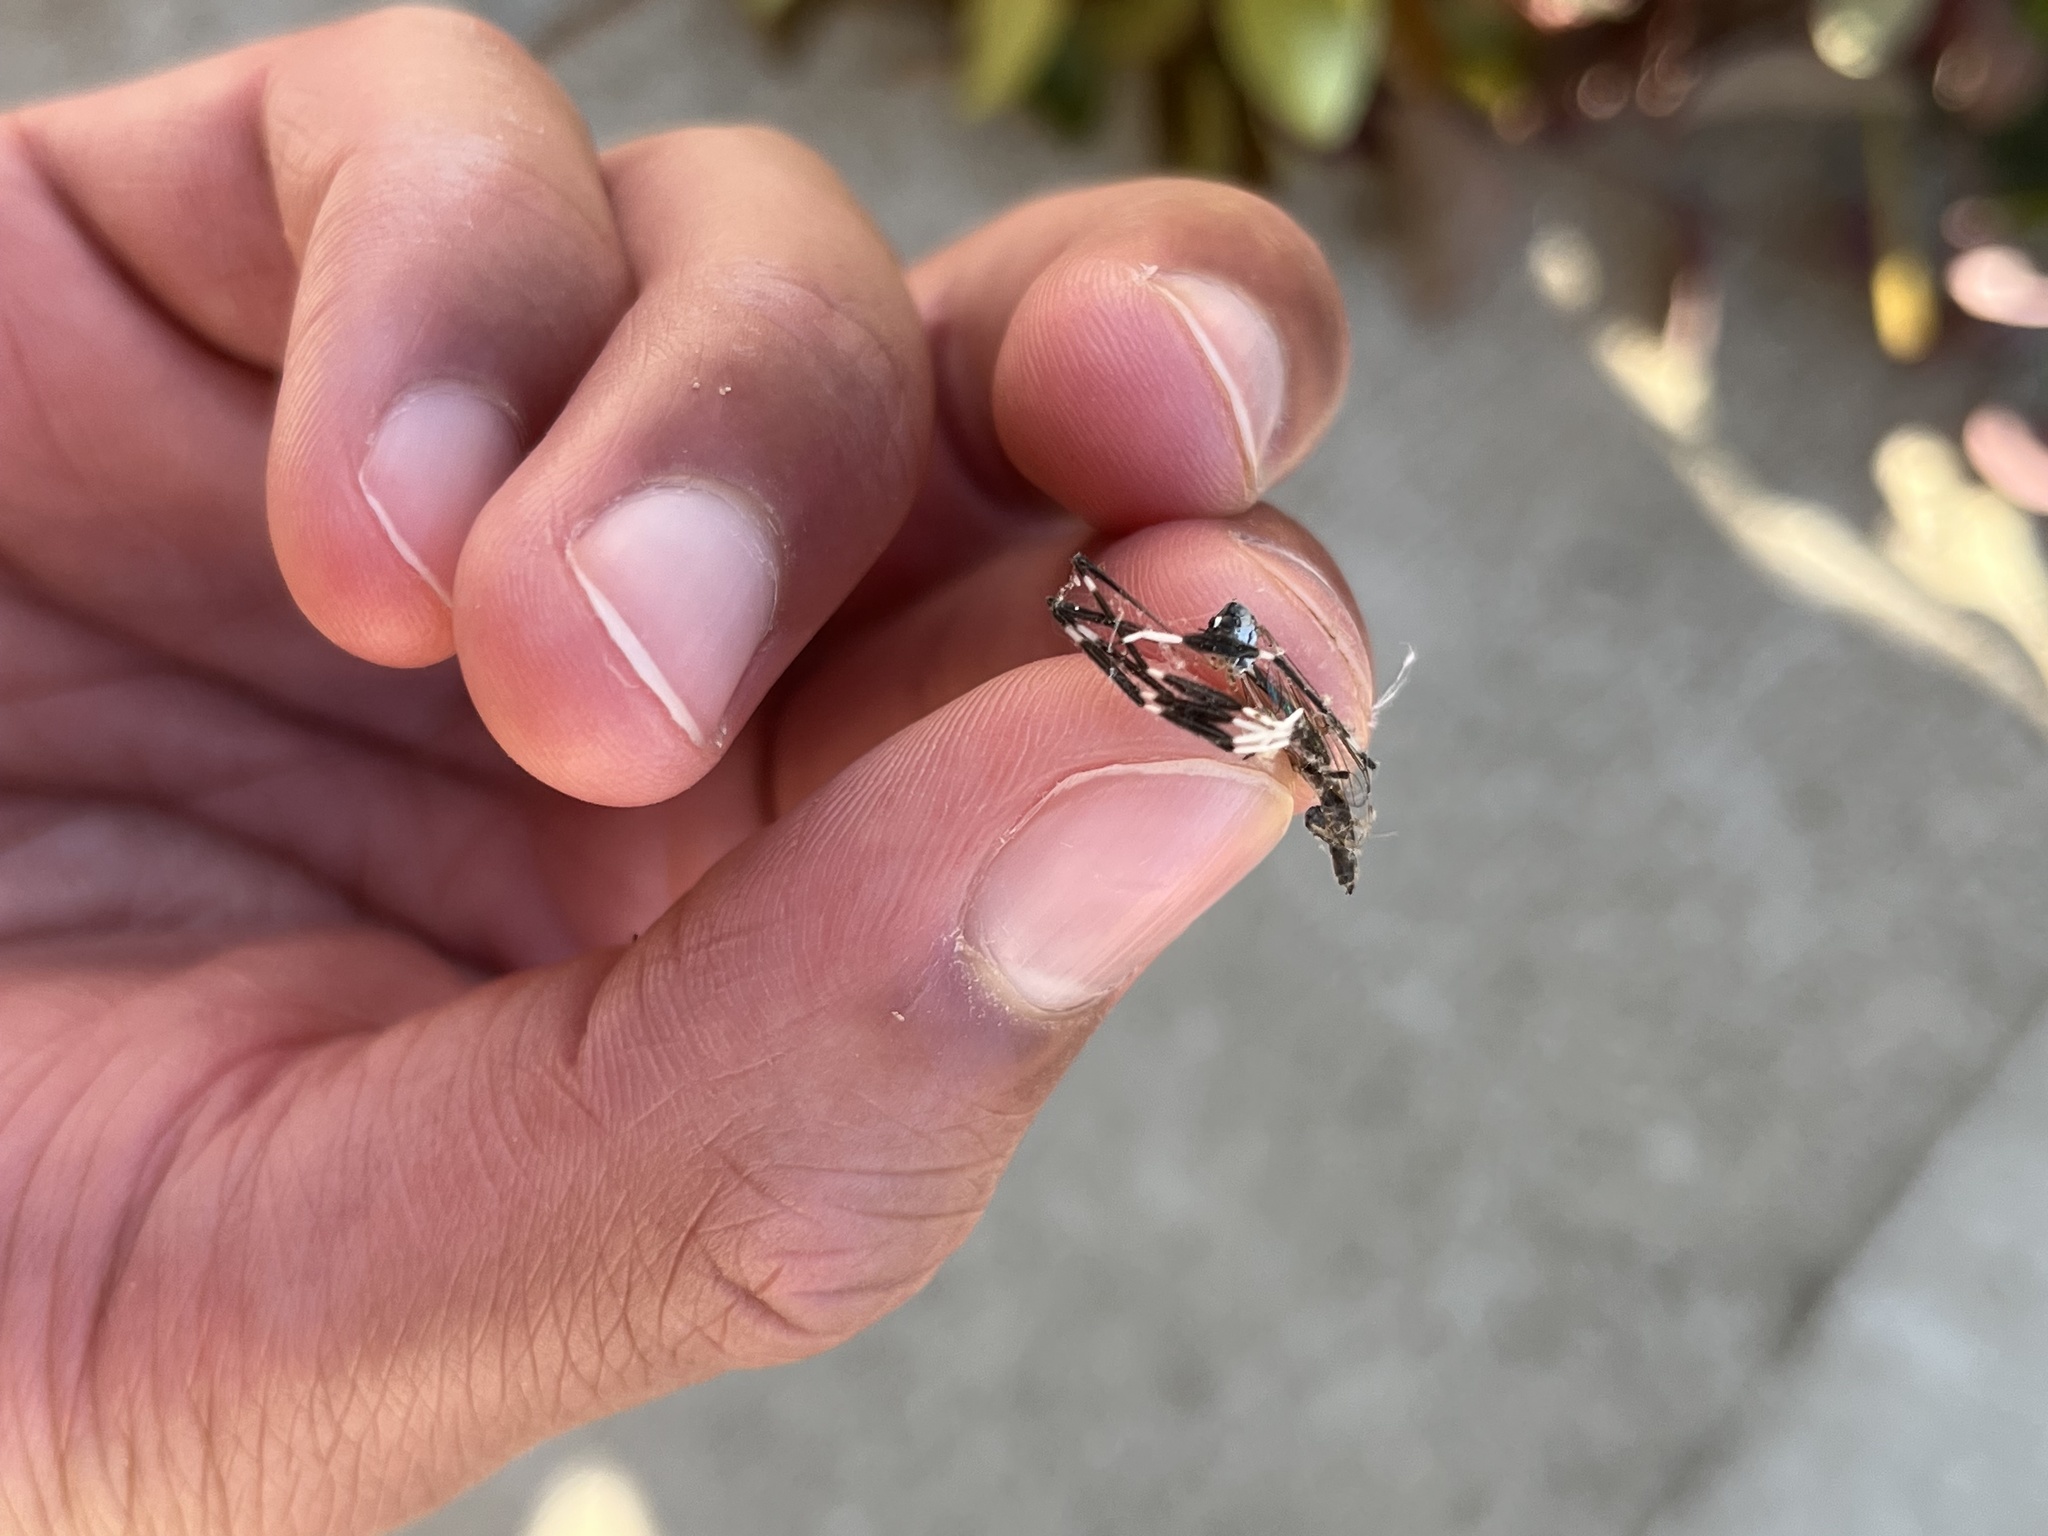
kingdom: Animalia
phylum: Arthropoda
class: Insecta
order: Diptera
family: Ptychopteridae
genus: Bittacomorpha
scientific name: Bittacomorpha clavipes
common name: Eastern phantom crane fly
